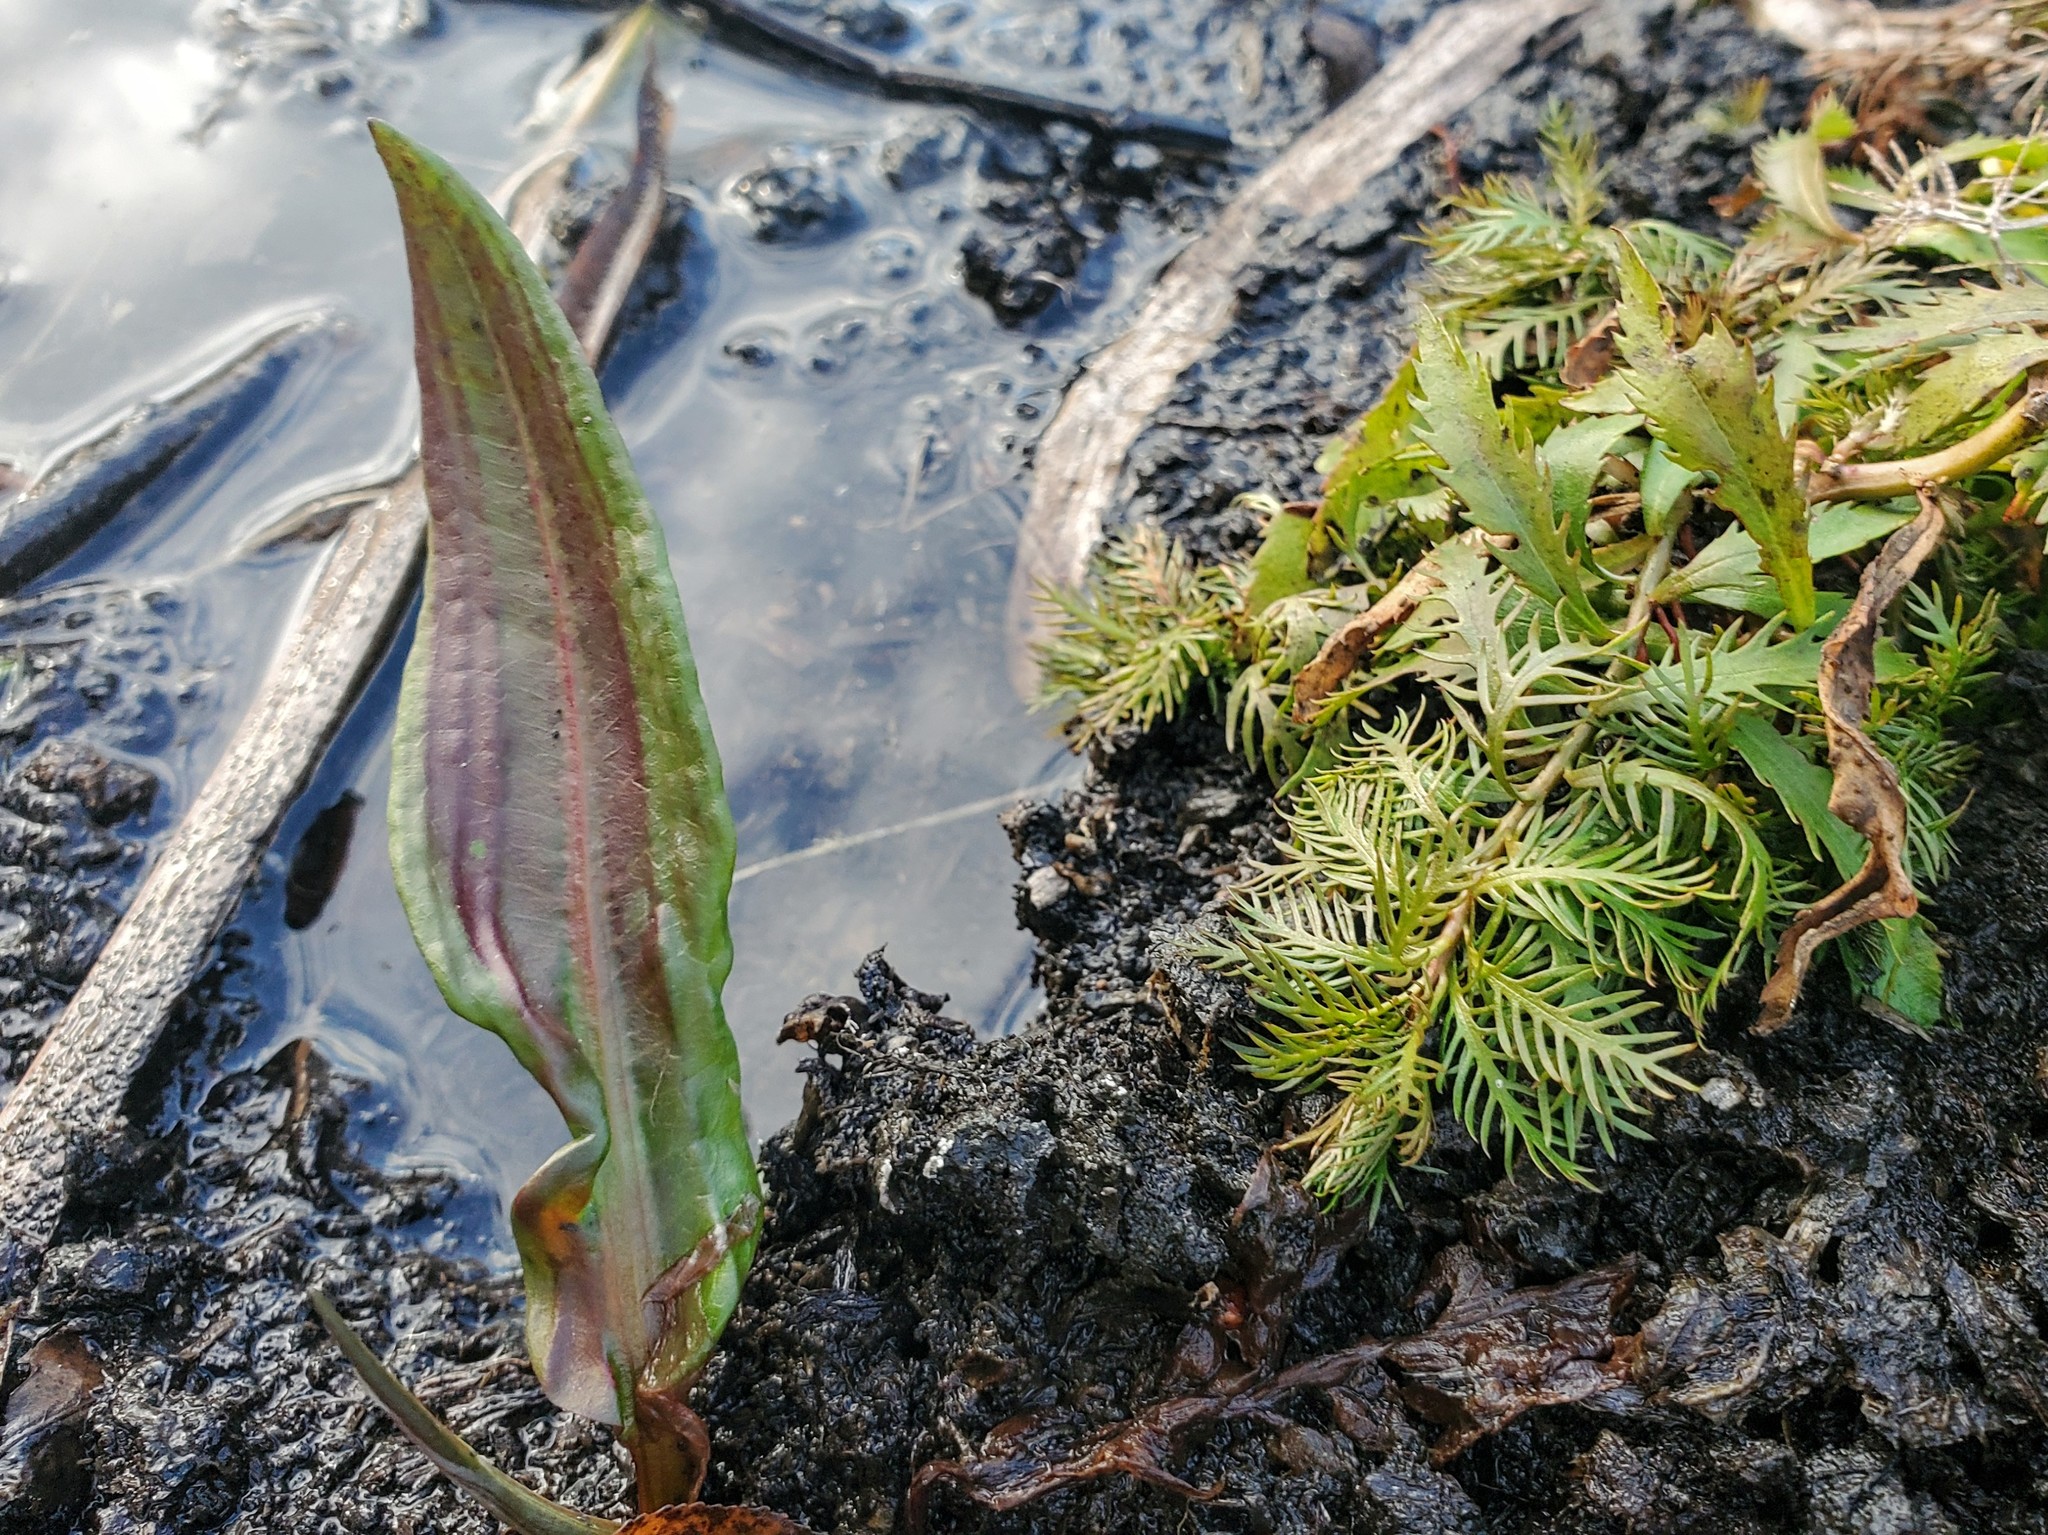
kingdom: Plantae
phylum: Tracheophyta
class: Magnoliopsida
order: Saxifragales
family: Haloragaceae
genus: Proserpinaca
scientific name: Proserpinaca palustris
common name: Marsh mermaidweed
